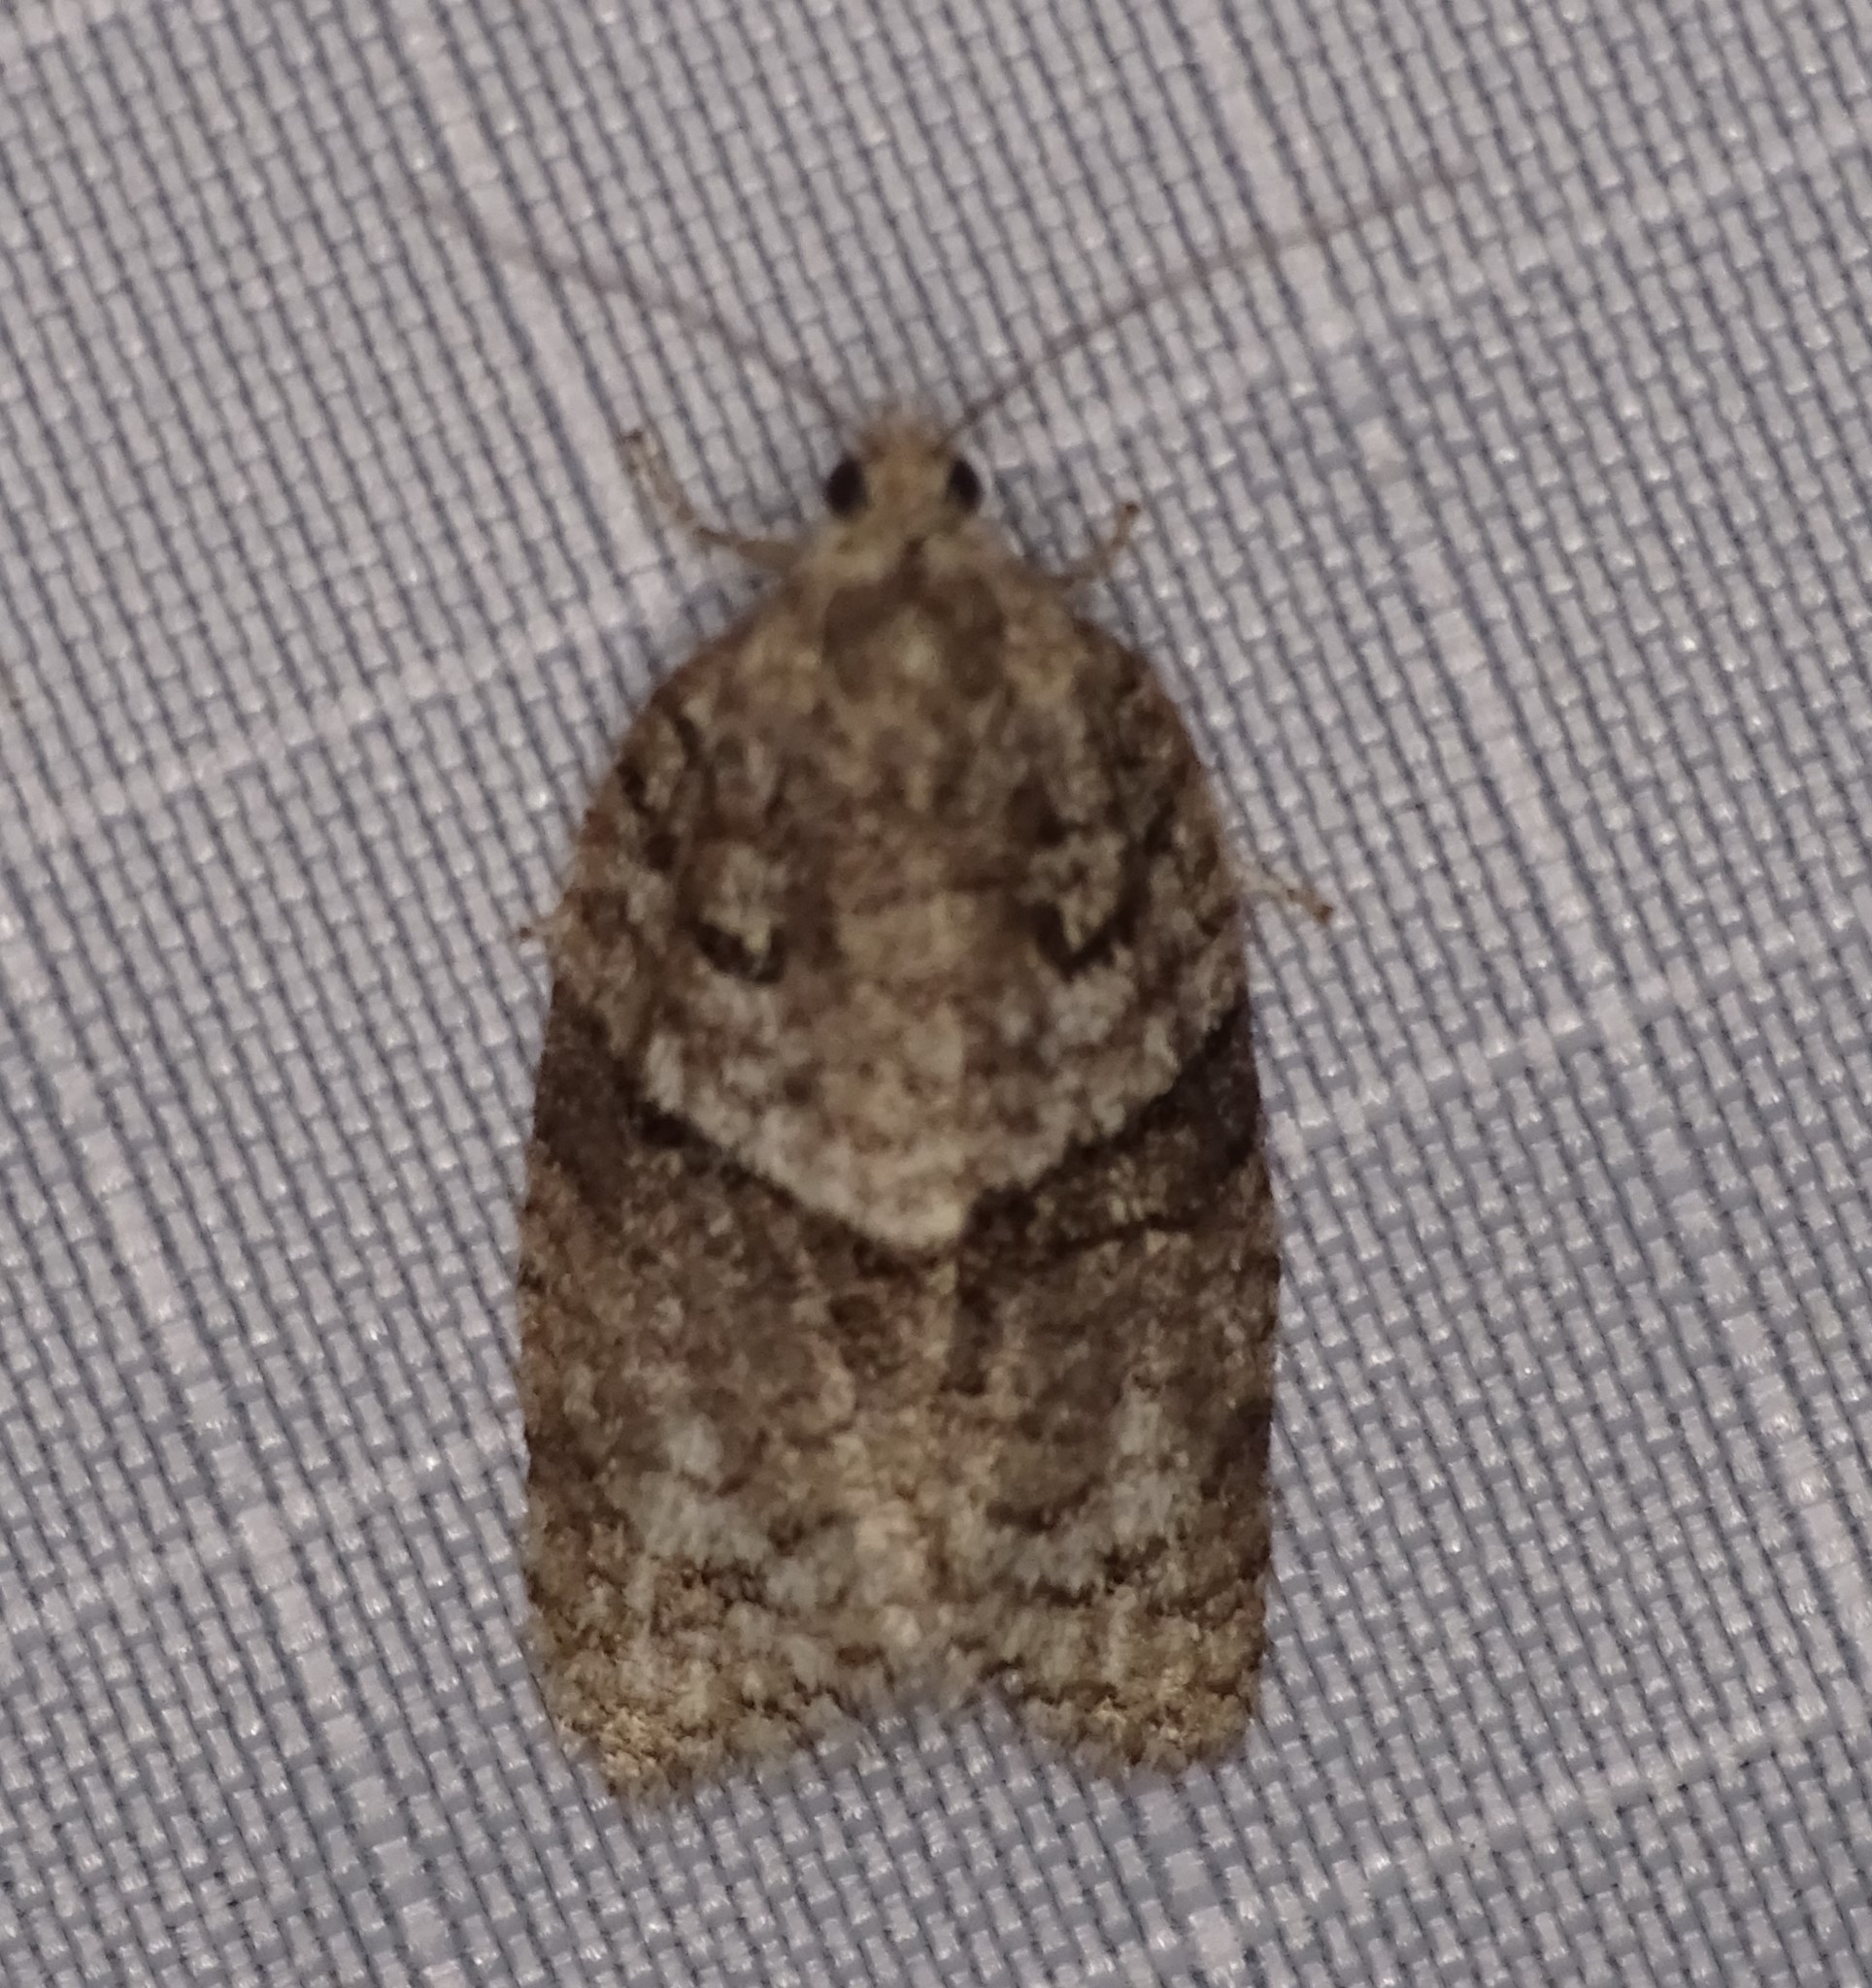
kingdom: Animalia
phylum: Arthropoda
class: Insecta
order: Lepidoptera
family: Tortricidae
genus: Syndemis
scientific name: Syndemis afflictana
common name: Gray leafroller moth
